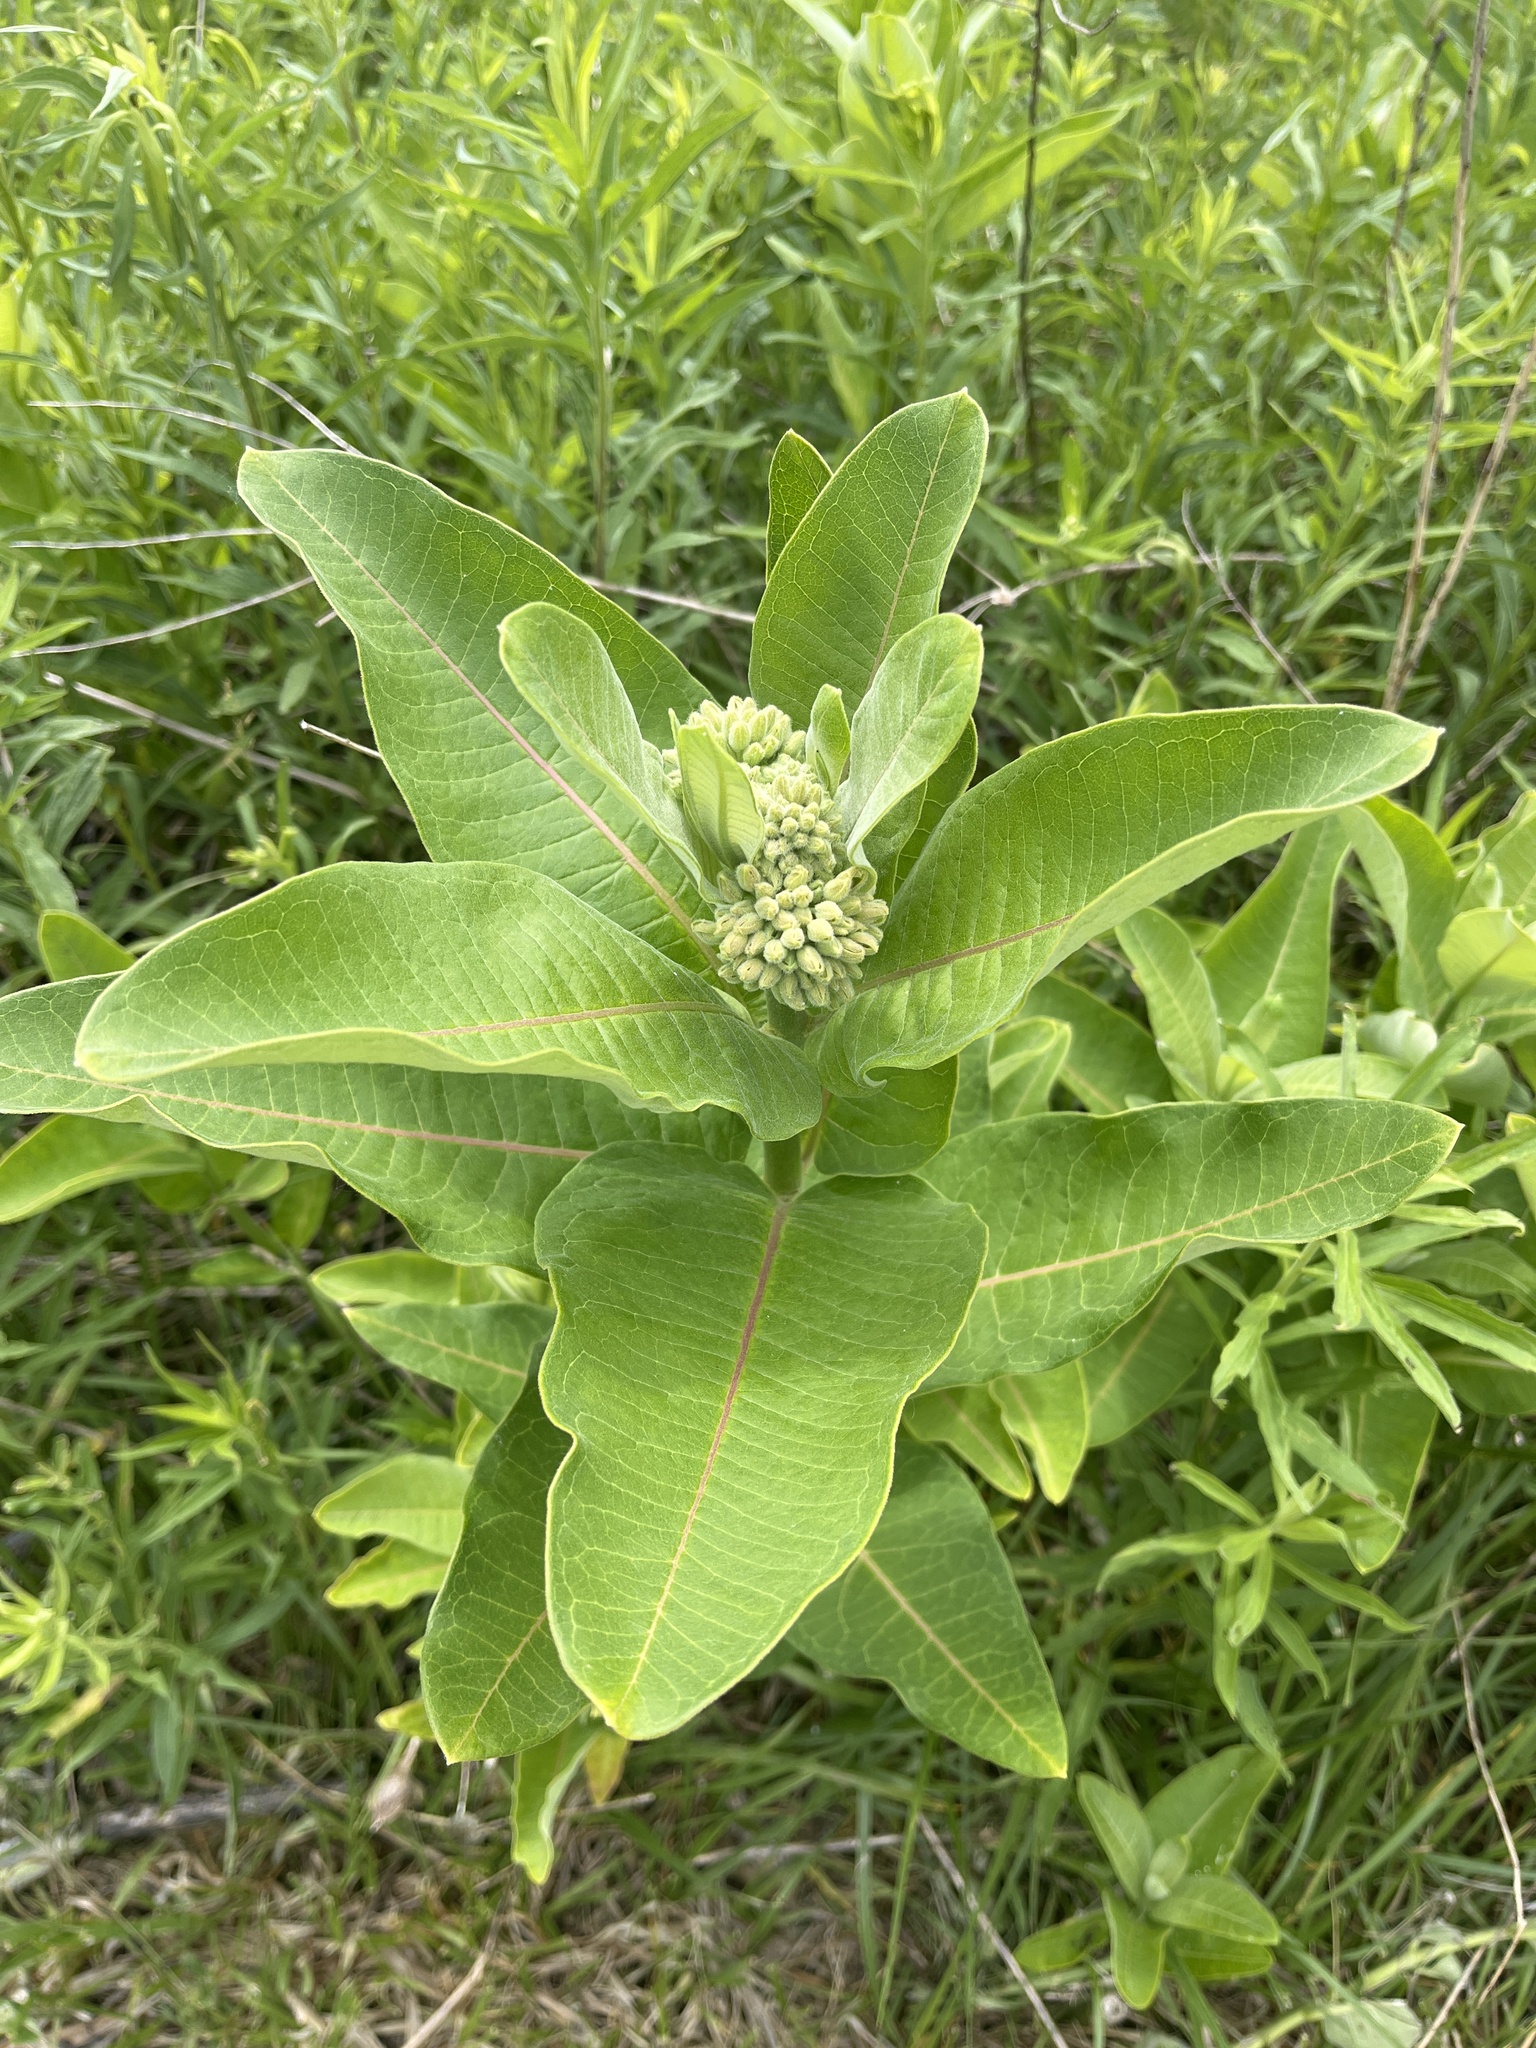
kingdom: Plantae
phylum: Tracheophyta
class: Magnoliopsida
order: Gentianales
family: Apocynaceae
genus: Asclepias
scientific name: Asclepias syriaca
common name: Common milkweed
